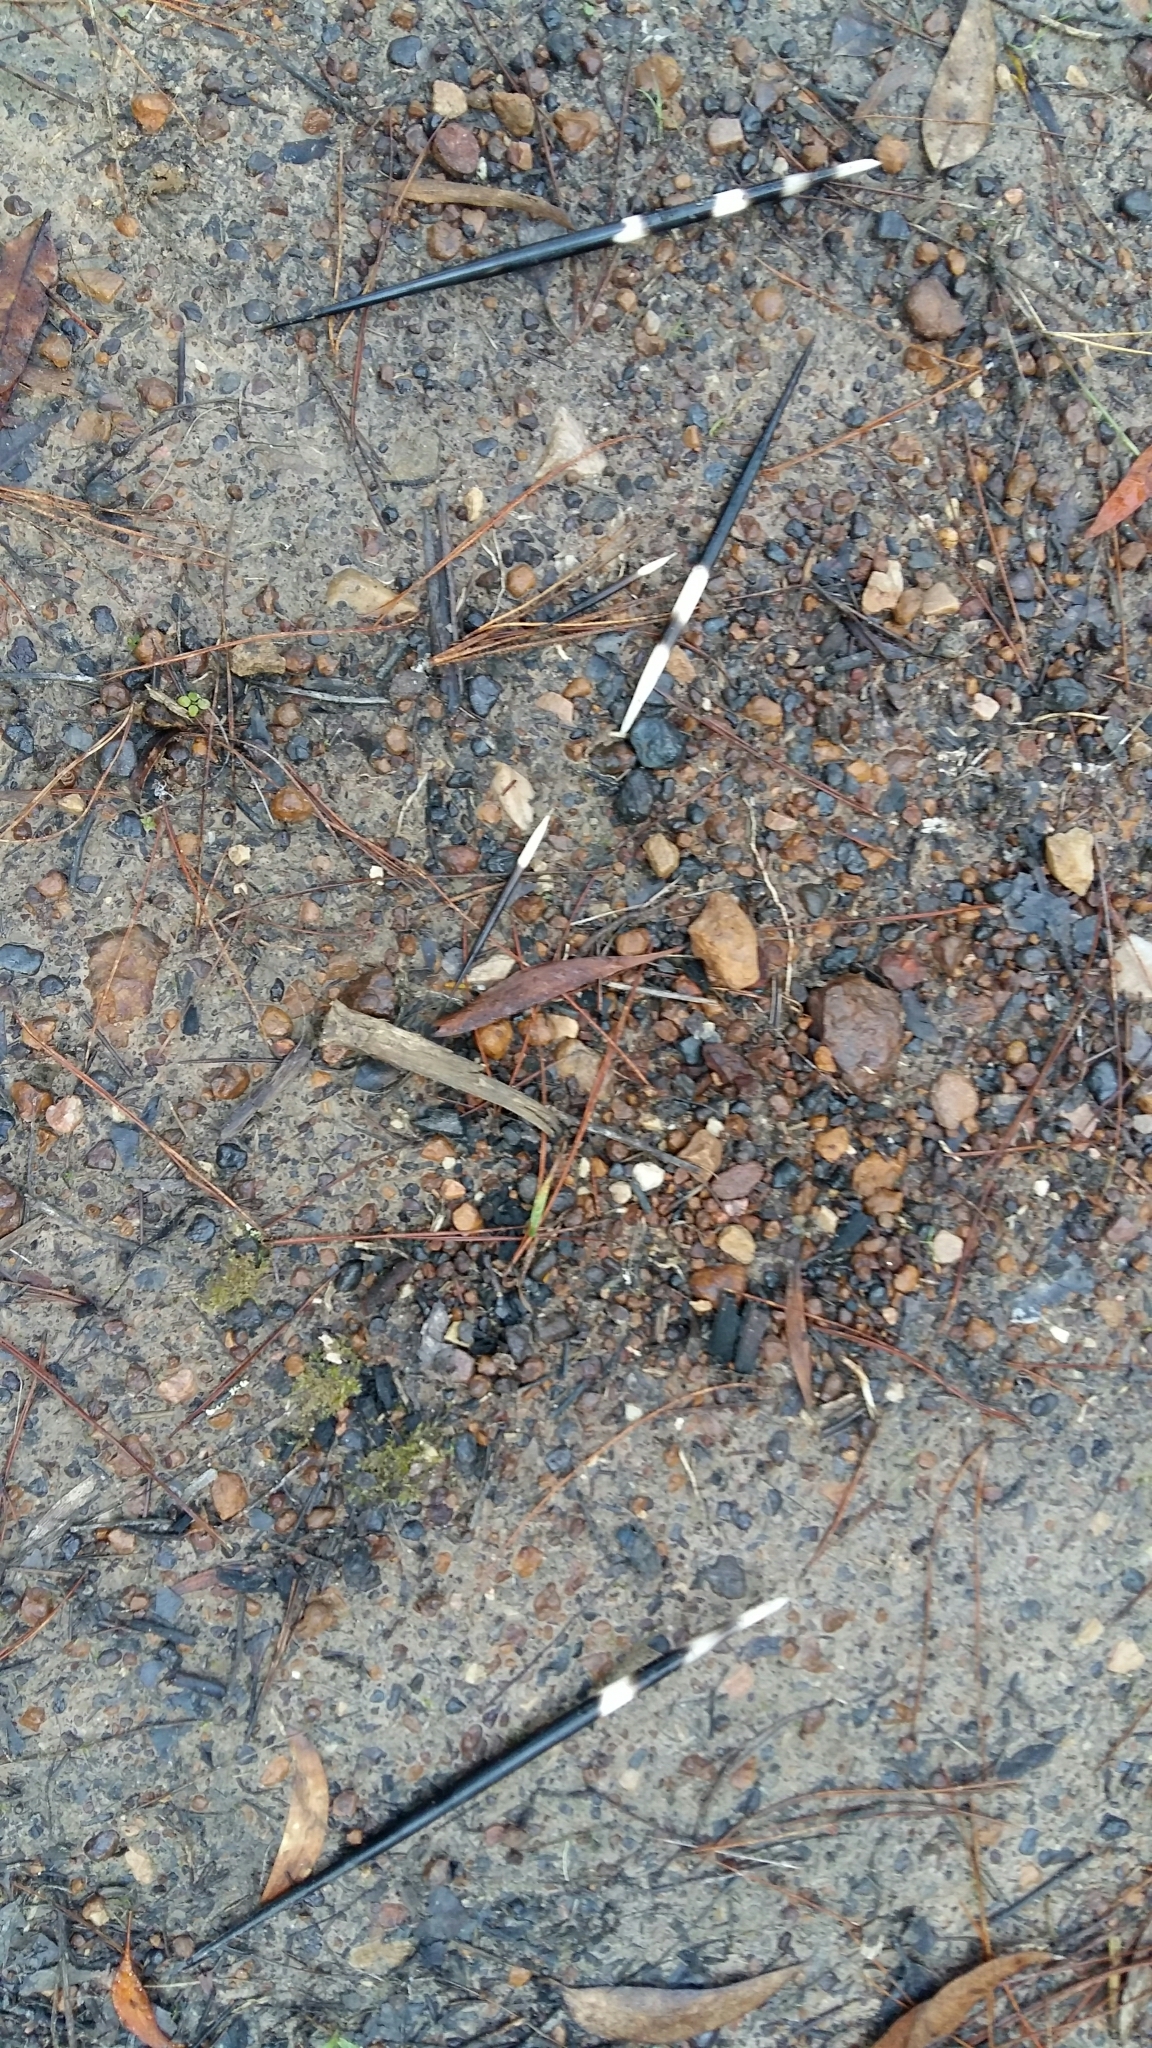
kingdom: Animalia
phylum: Chordata
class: Mammalia
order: Rodentia
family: Hystricidae
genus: Hystrix
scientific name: Hystrix africaeaustralis
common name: Cape porcupine
